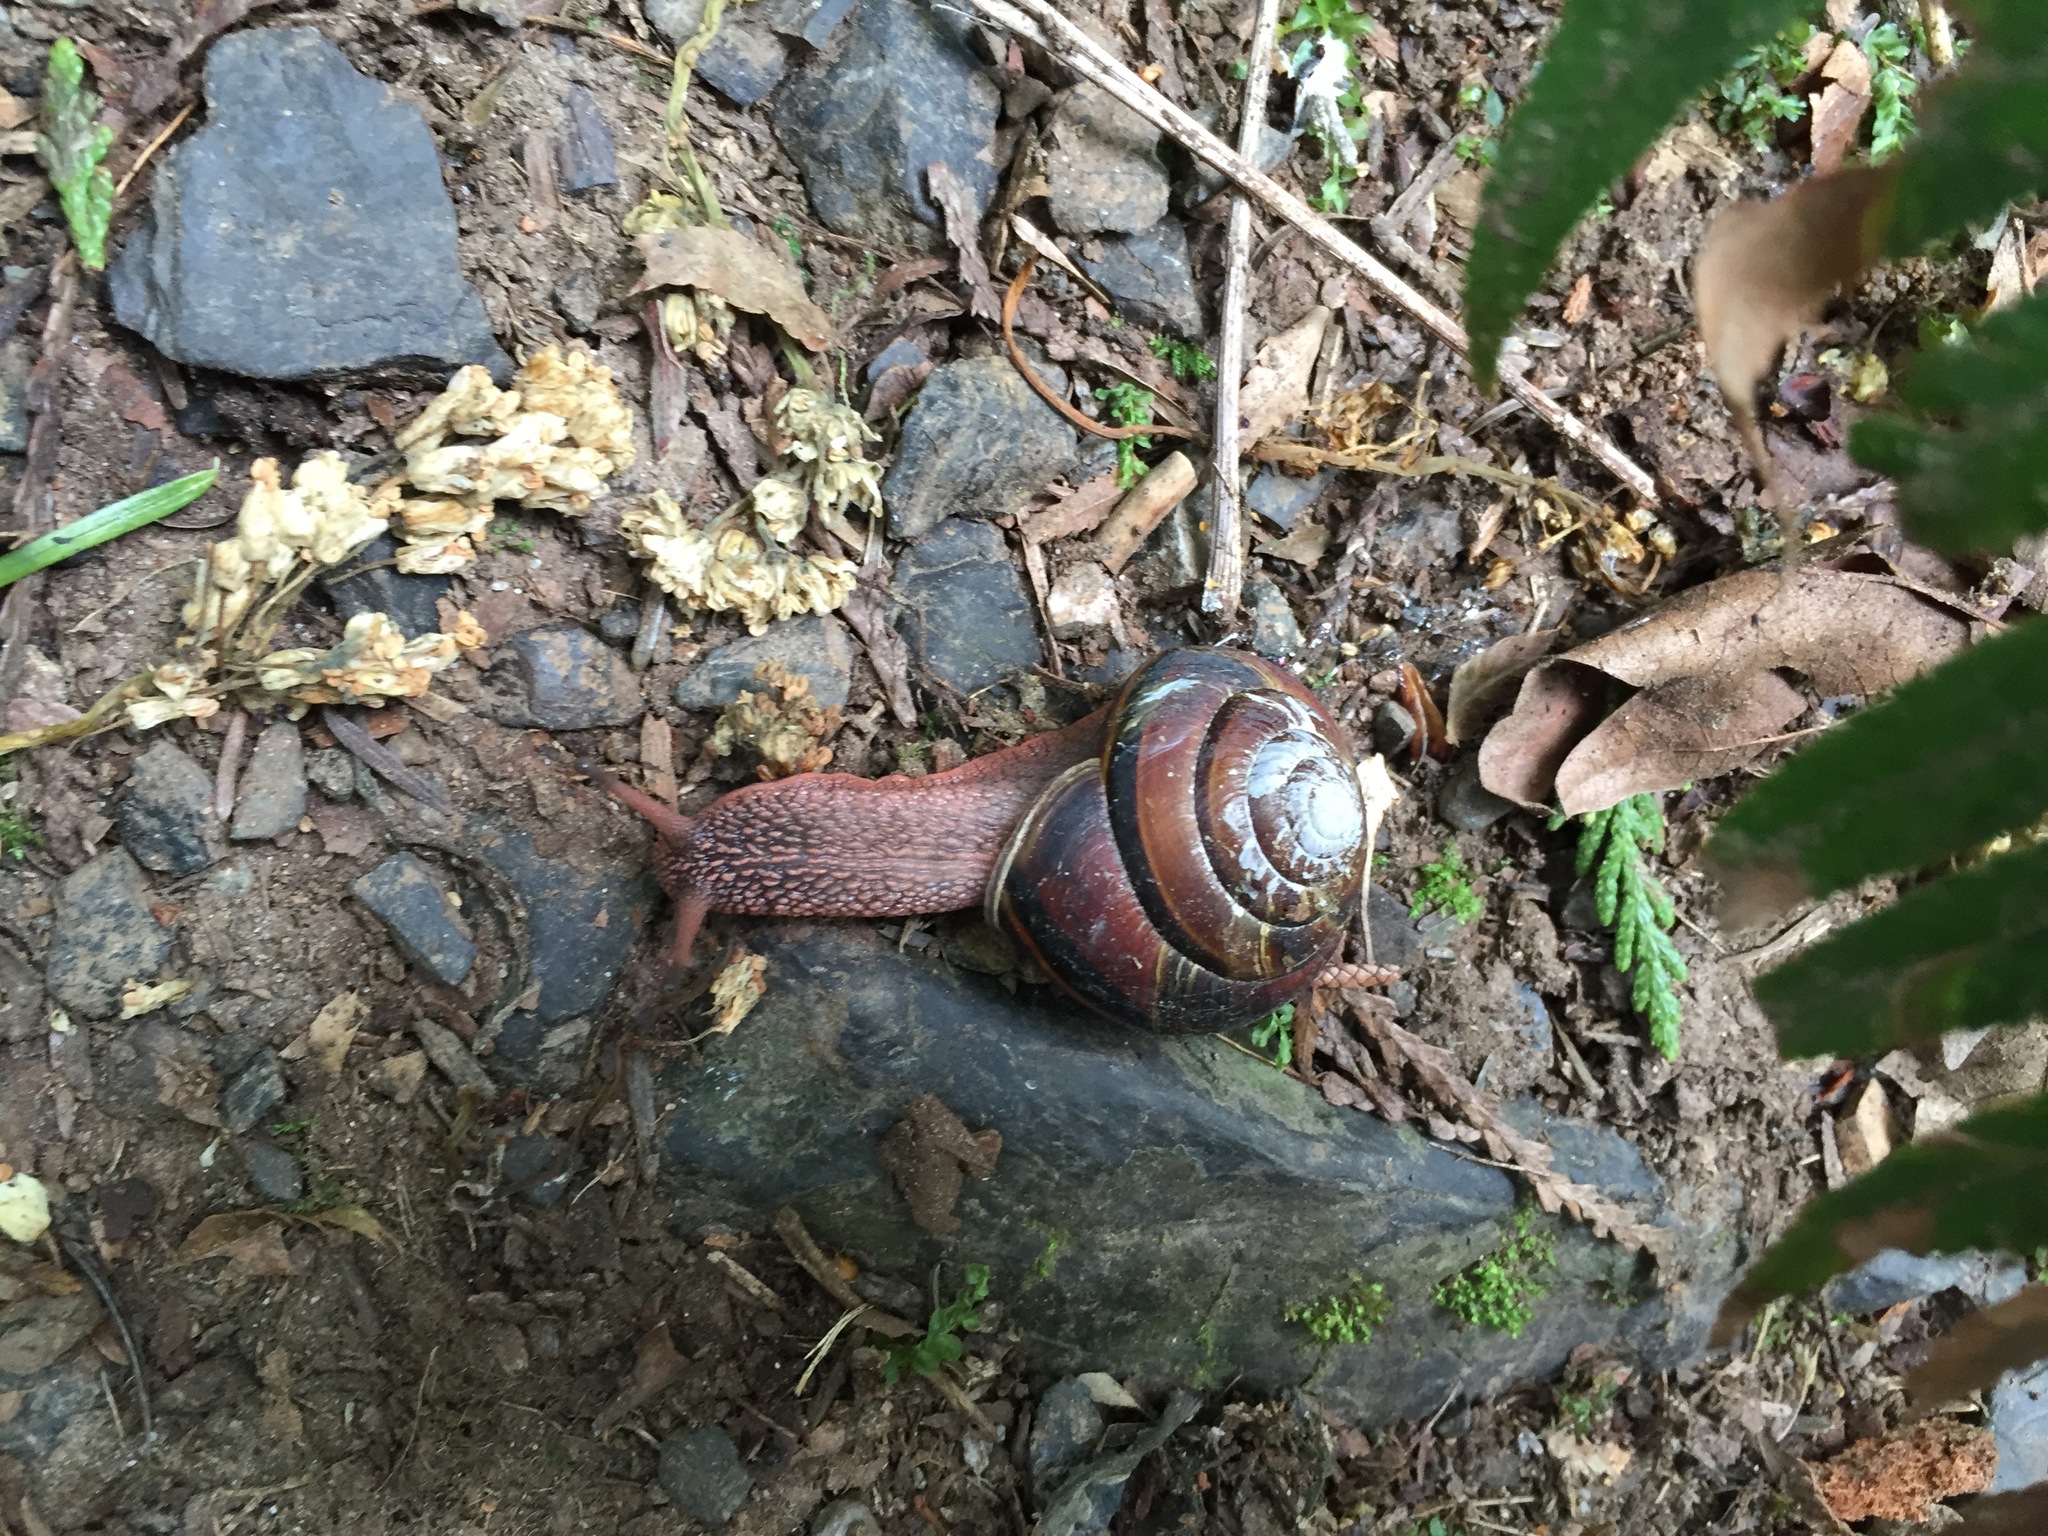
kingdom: Animalia
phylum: Mollusca
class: Gastropoda
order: Stylommatophora
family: Xanthonychidae
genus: Monadenia
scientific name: Monadenia fidelis
